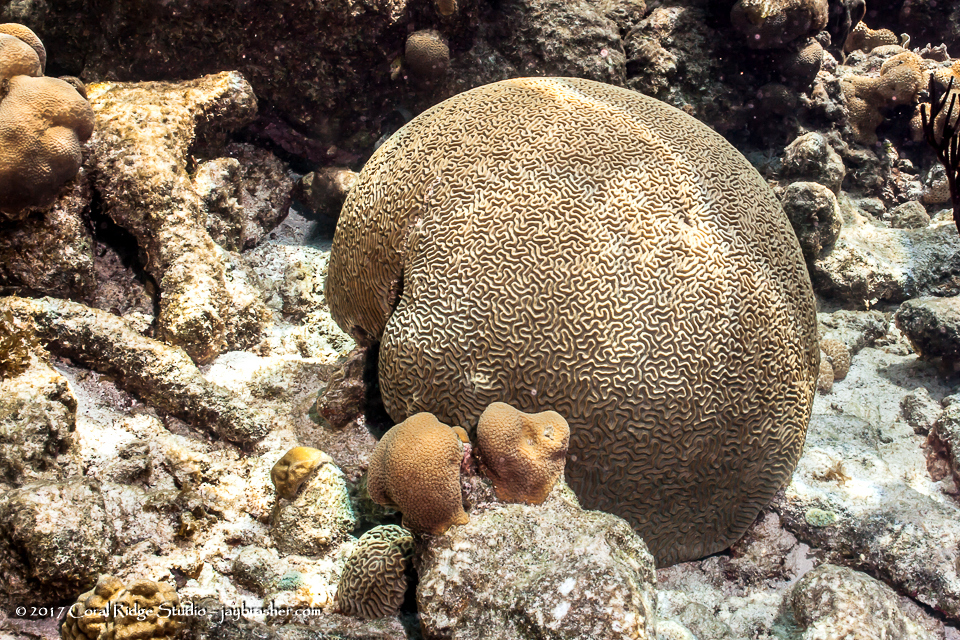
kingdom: Animalia
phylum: Cnidaria
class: Anthozoa
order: Scleractinia
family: Faviidae
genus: Pseudodiploria
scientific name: Pseudodiploria strigosa
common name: Symmetrical brain coral
